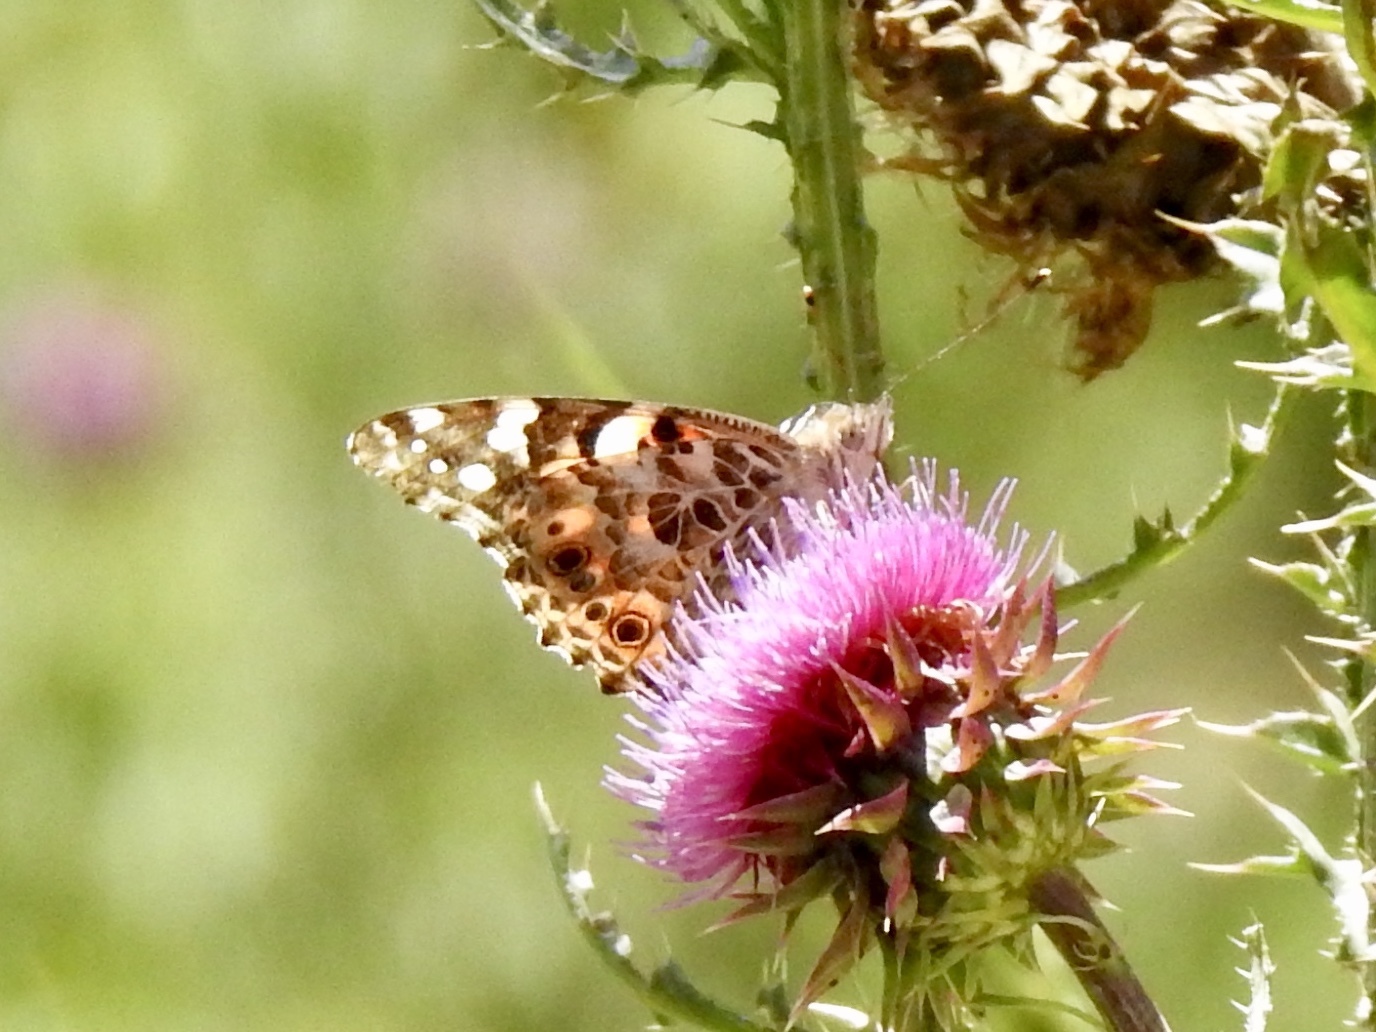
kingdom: Animalia
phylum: Arthropoda
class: Insecta
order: Lepidoptera
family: Nymphalidae
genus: Vanessa
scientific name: Vanessa cardui
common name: Painted lady
